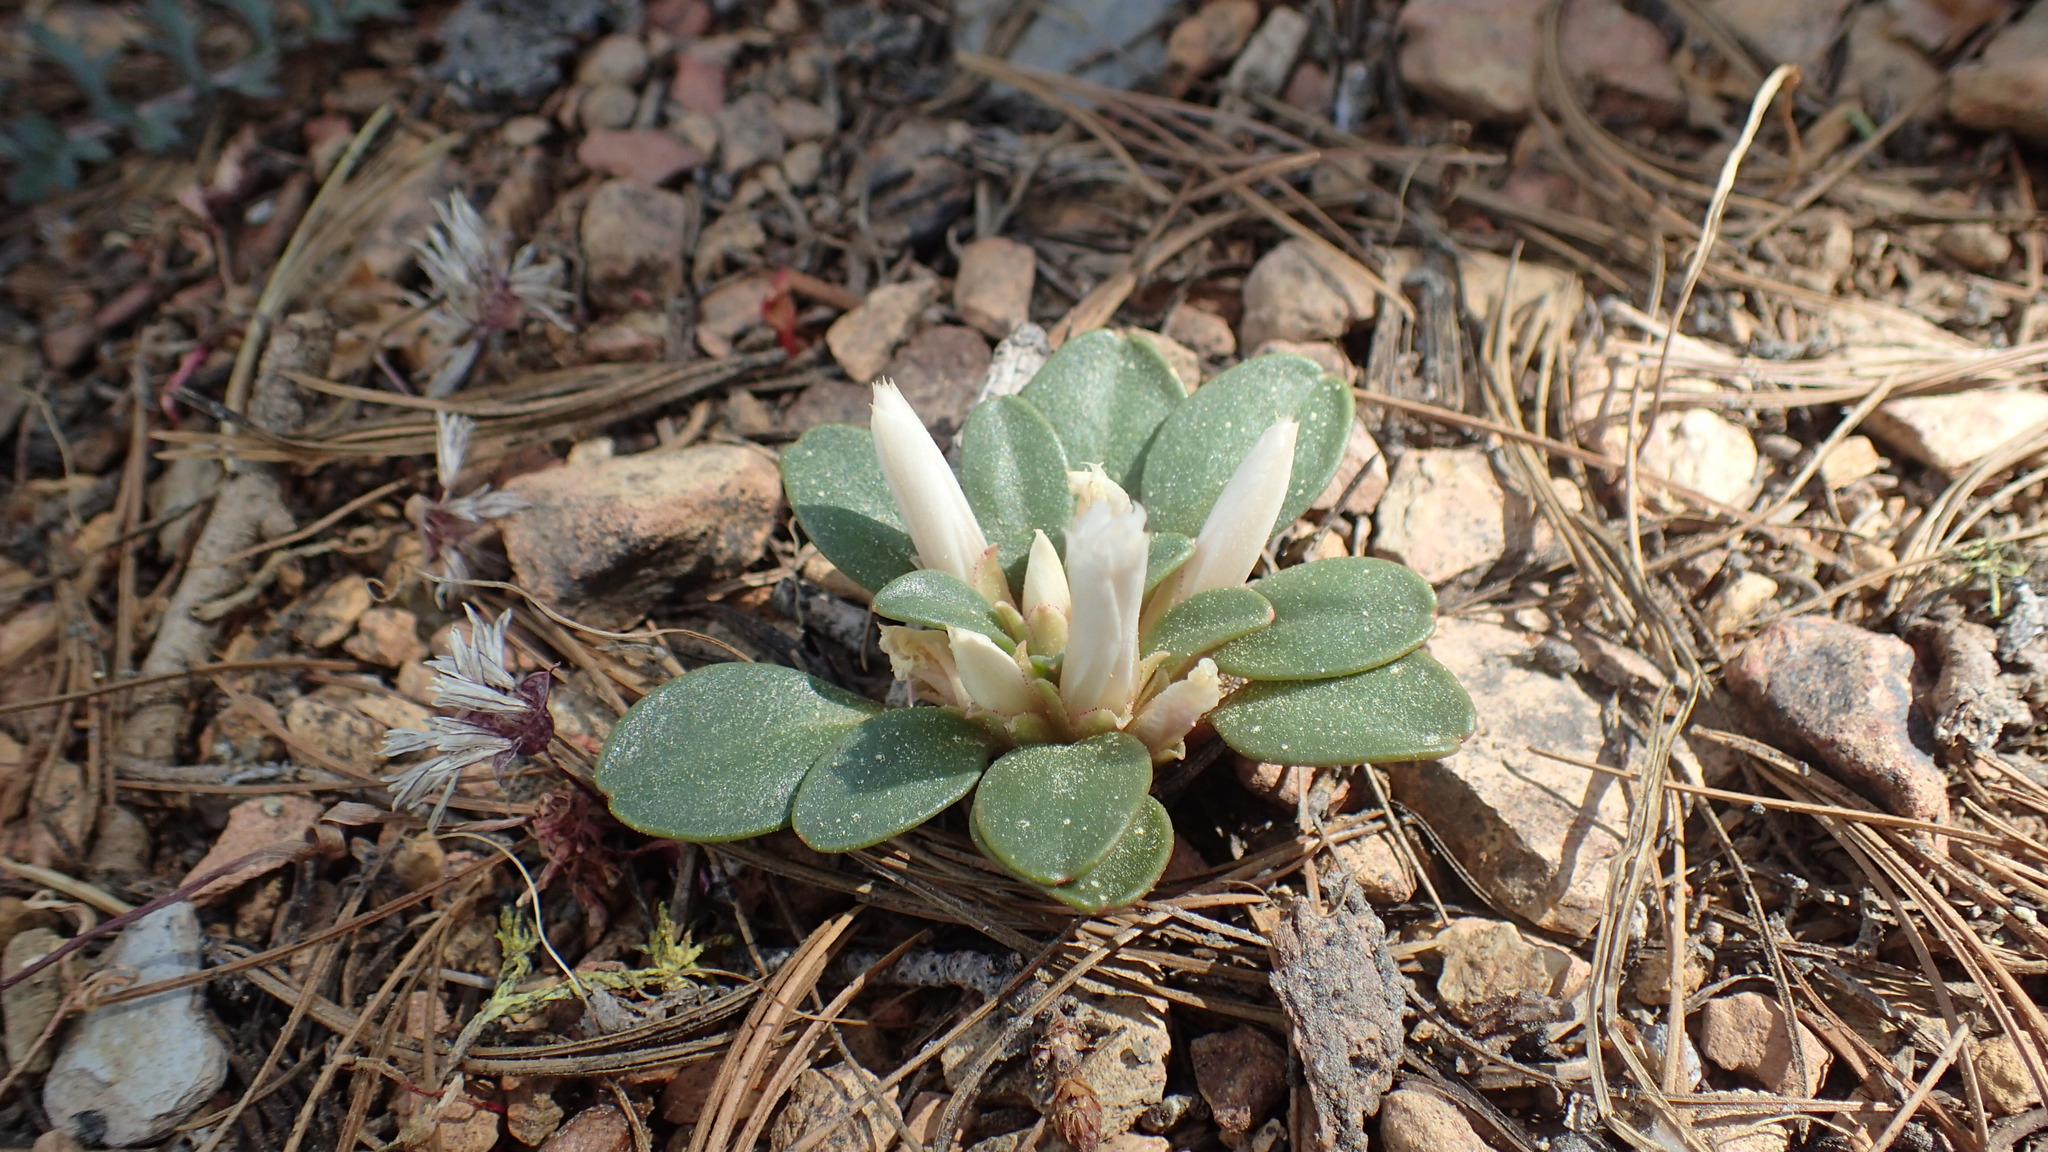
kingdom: Plantae
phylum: Tracheophyta
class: Magnoliopsida
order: Caryophyllales
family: Montiaceae
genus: Lewisia
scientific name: Lewisia kelloggii
